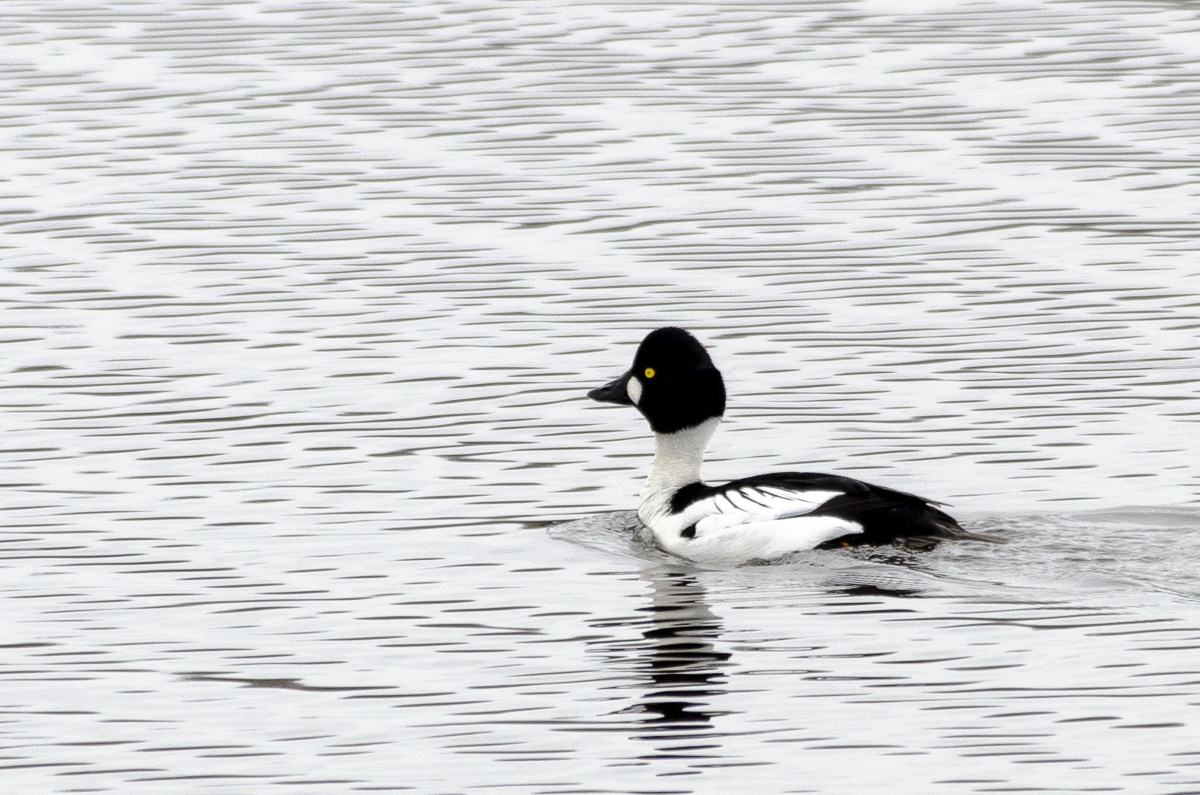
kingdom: Animalia
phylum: Chordata
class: Aves
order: Anseriformes
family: Anatidae
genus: Bucephala
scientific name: Bucephala clangula
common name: Common goldeneye
